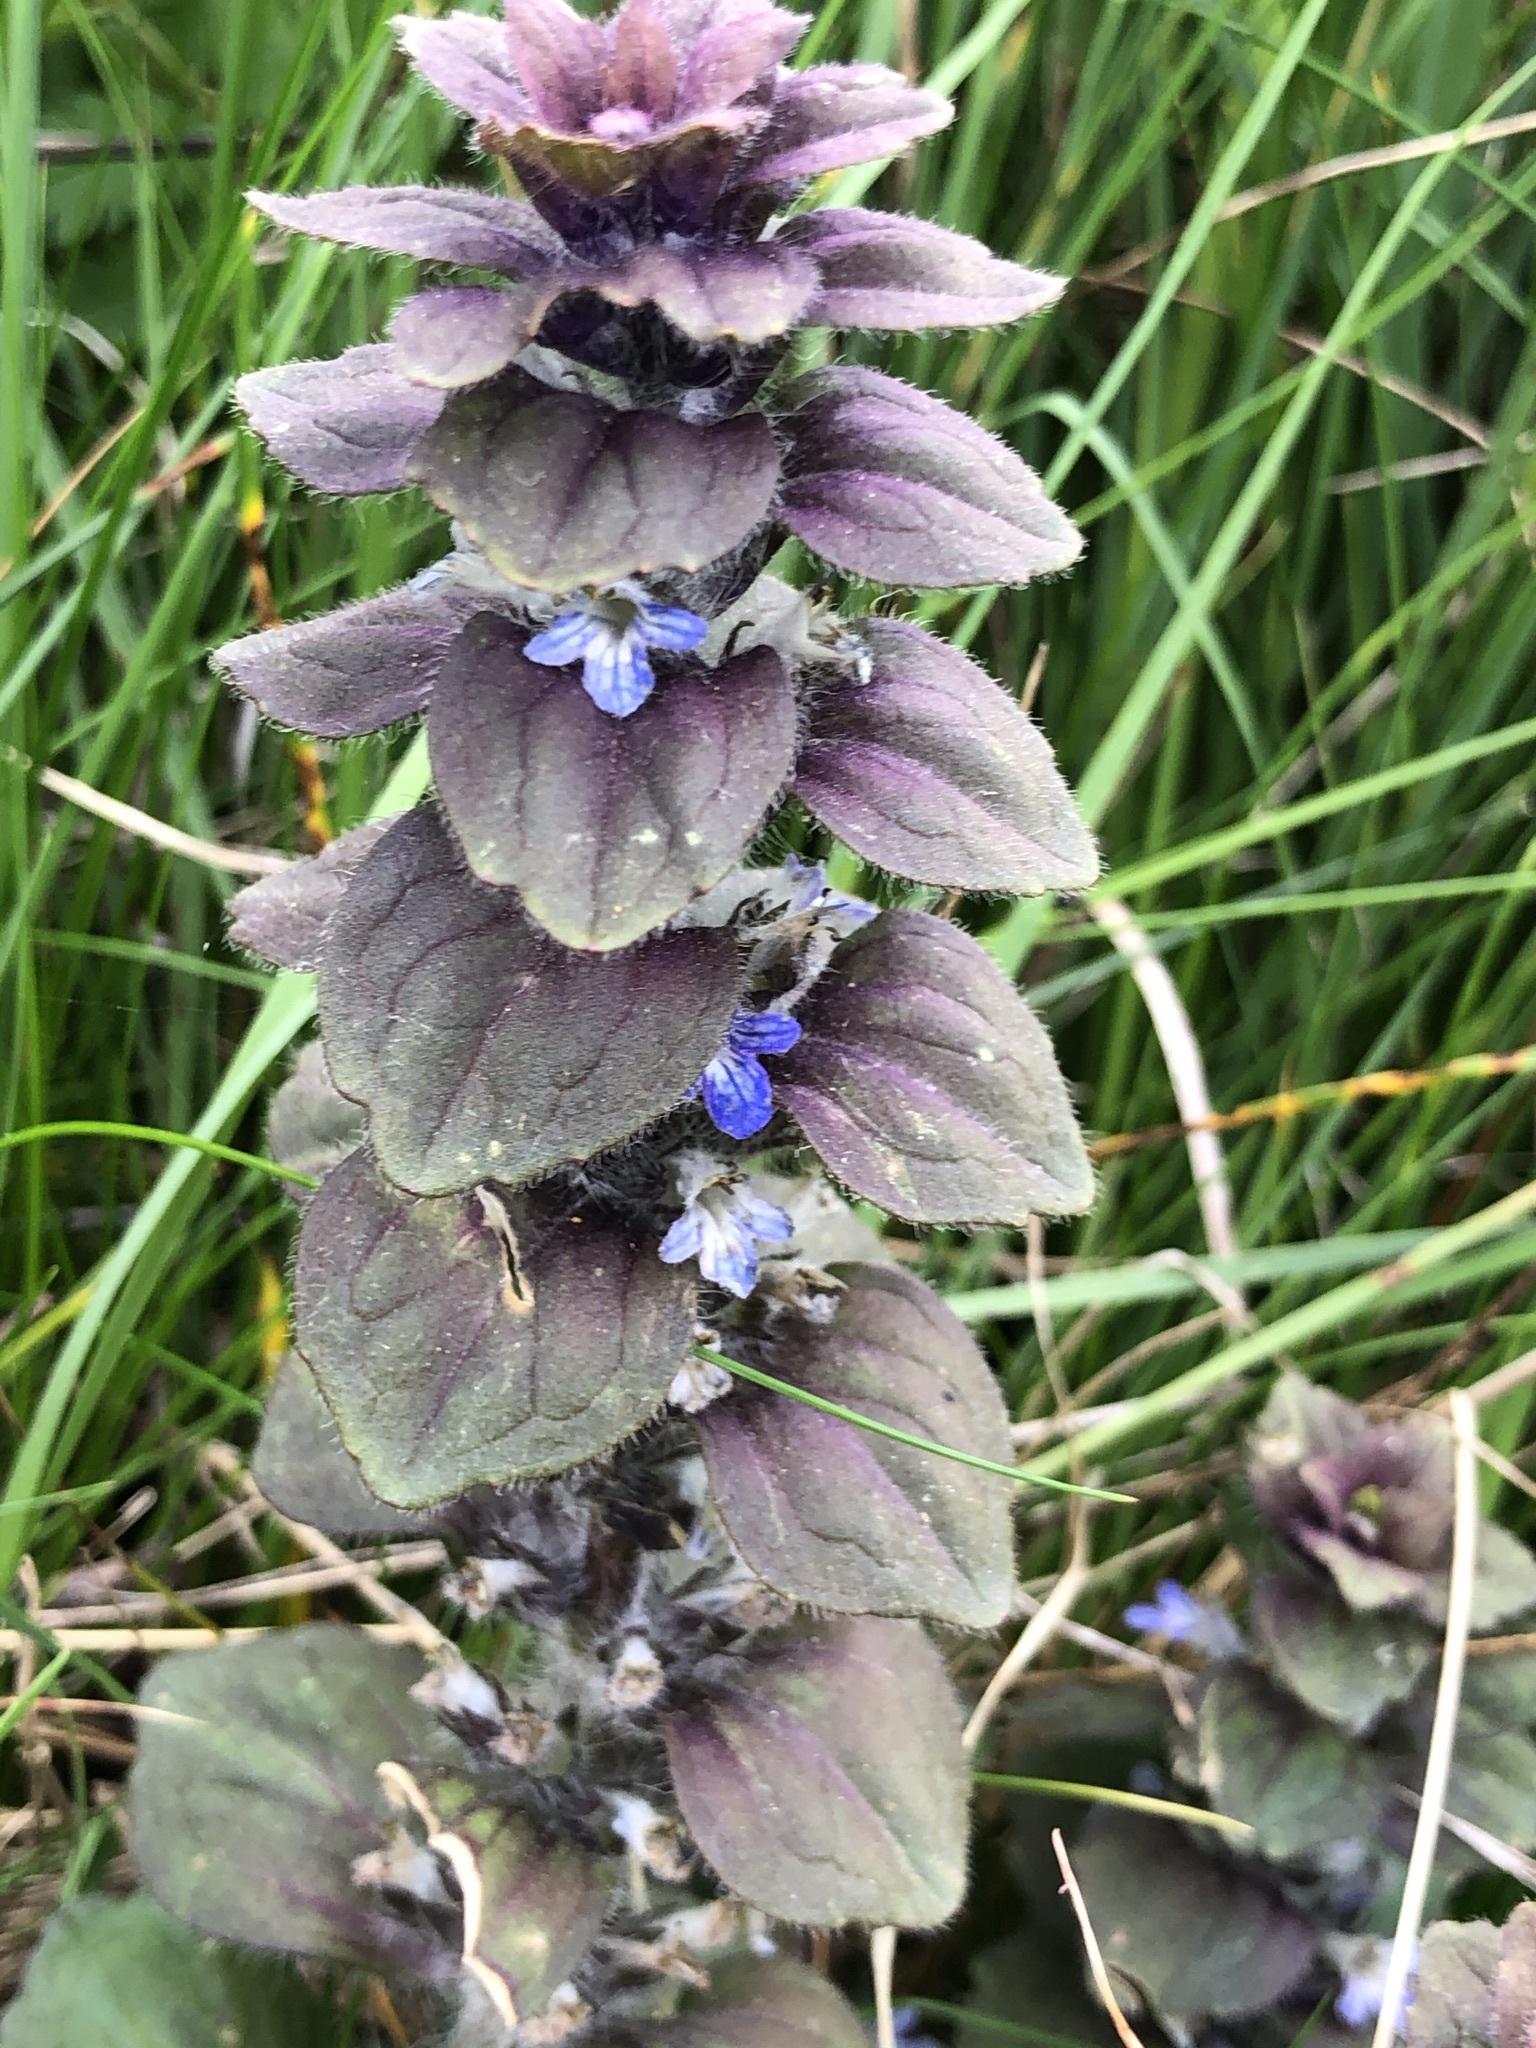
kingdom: Plantae
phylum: Tracheophyta
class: Magnoliopsida
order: Lamiales
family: Lamiaceae
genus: Ajuga
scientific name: Ajuga pyramidalis
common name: Pyramid bugle
